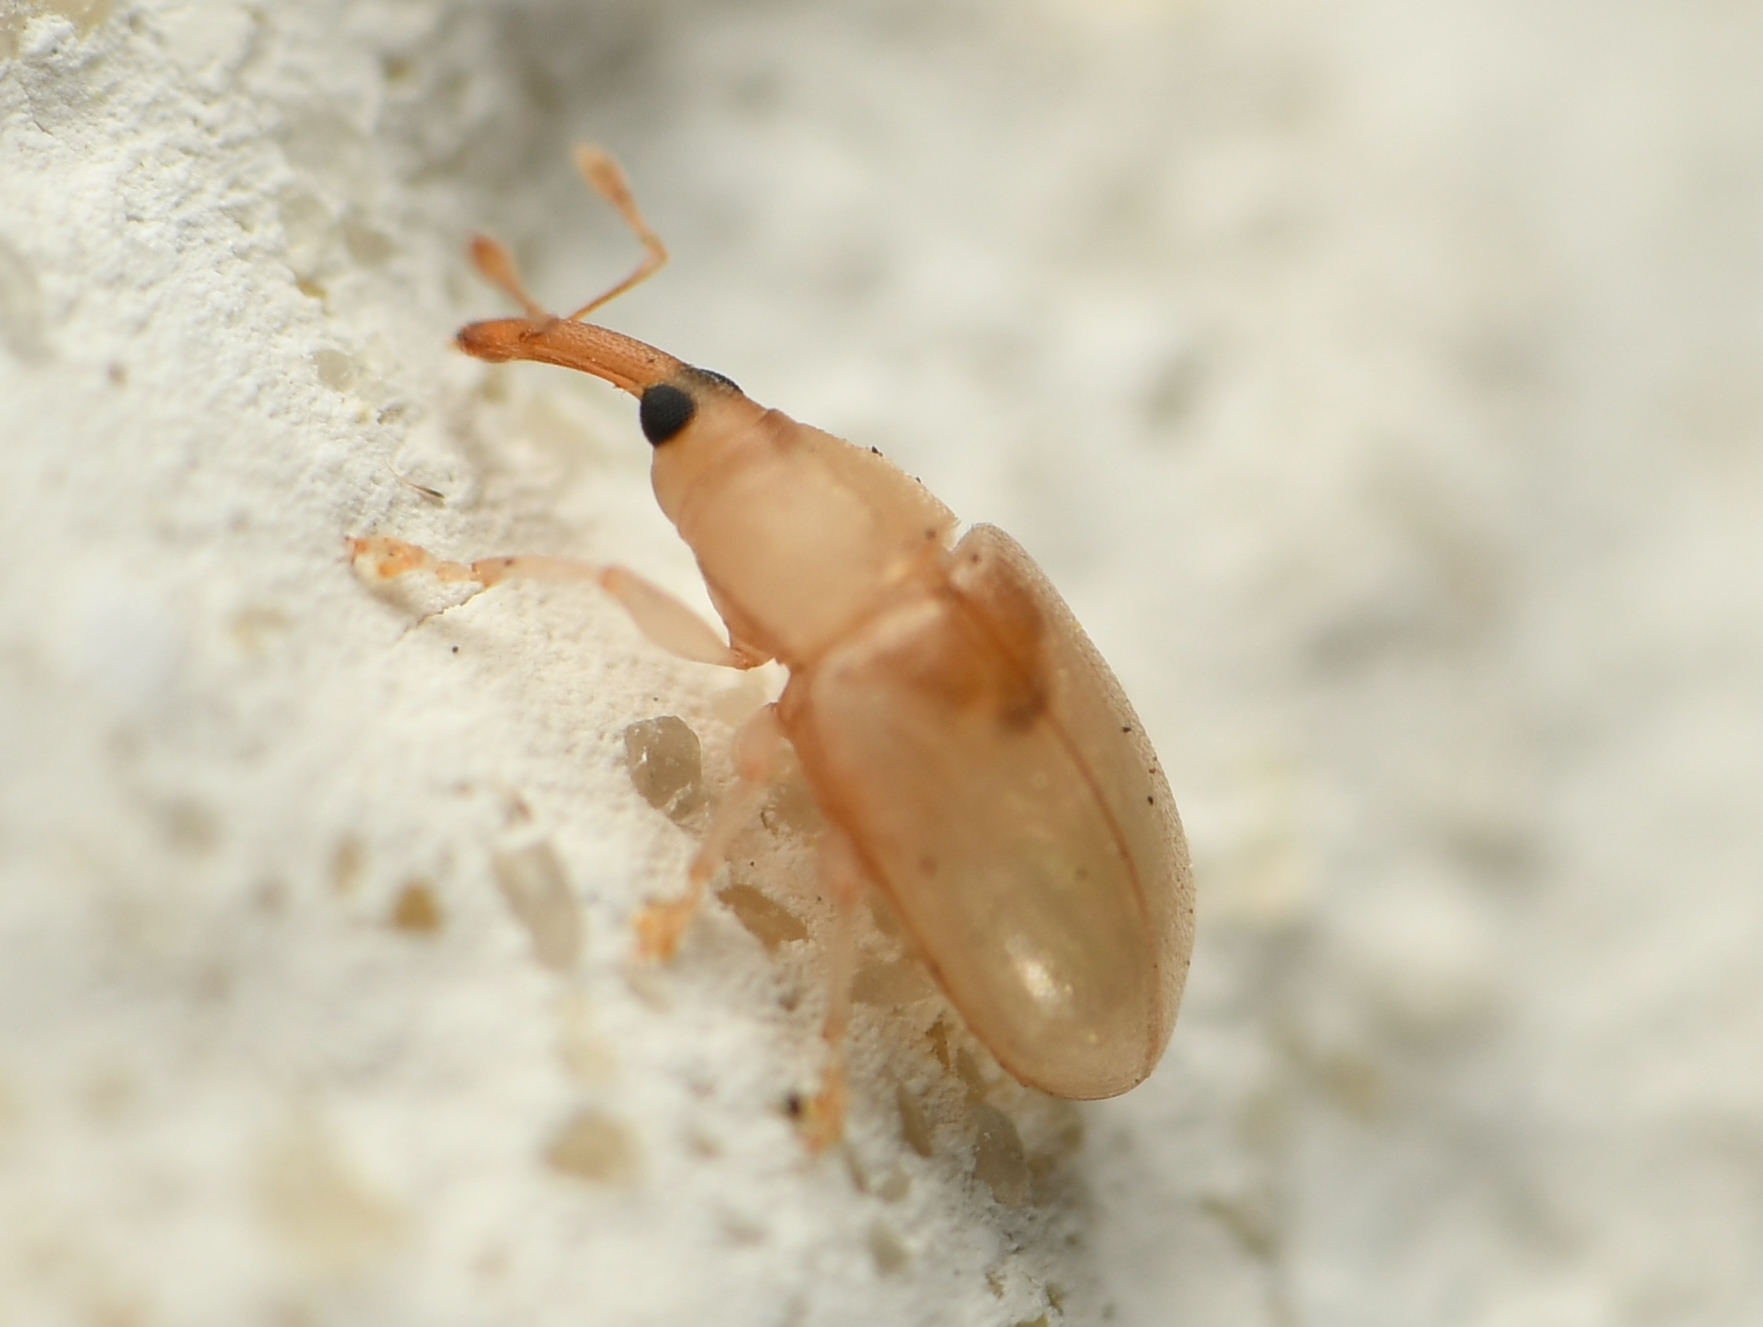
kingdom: Animalia
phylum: Arthropoda
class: Insecta
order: Coleoptera
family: Curculionidae
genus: Notolomus
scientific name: Notolomus basalis
